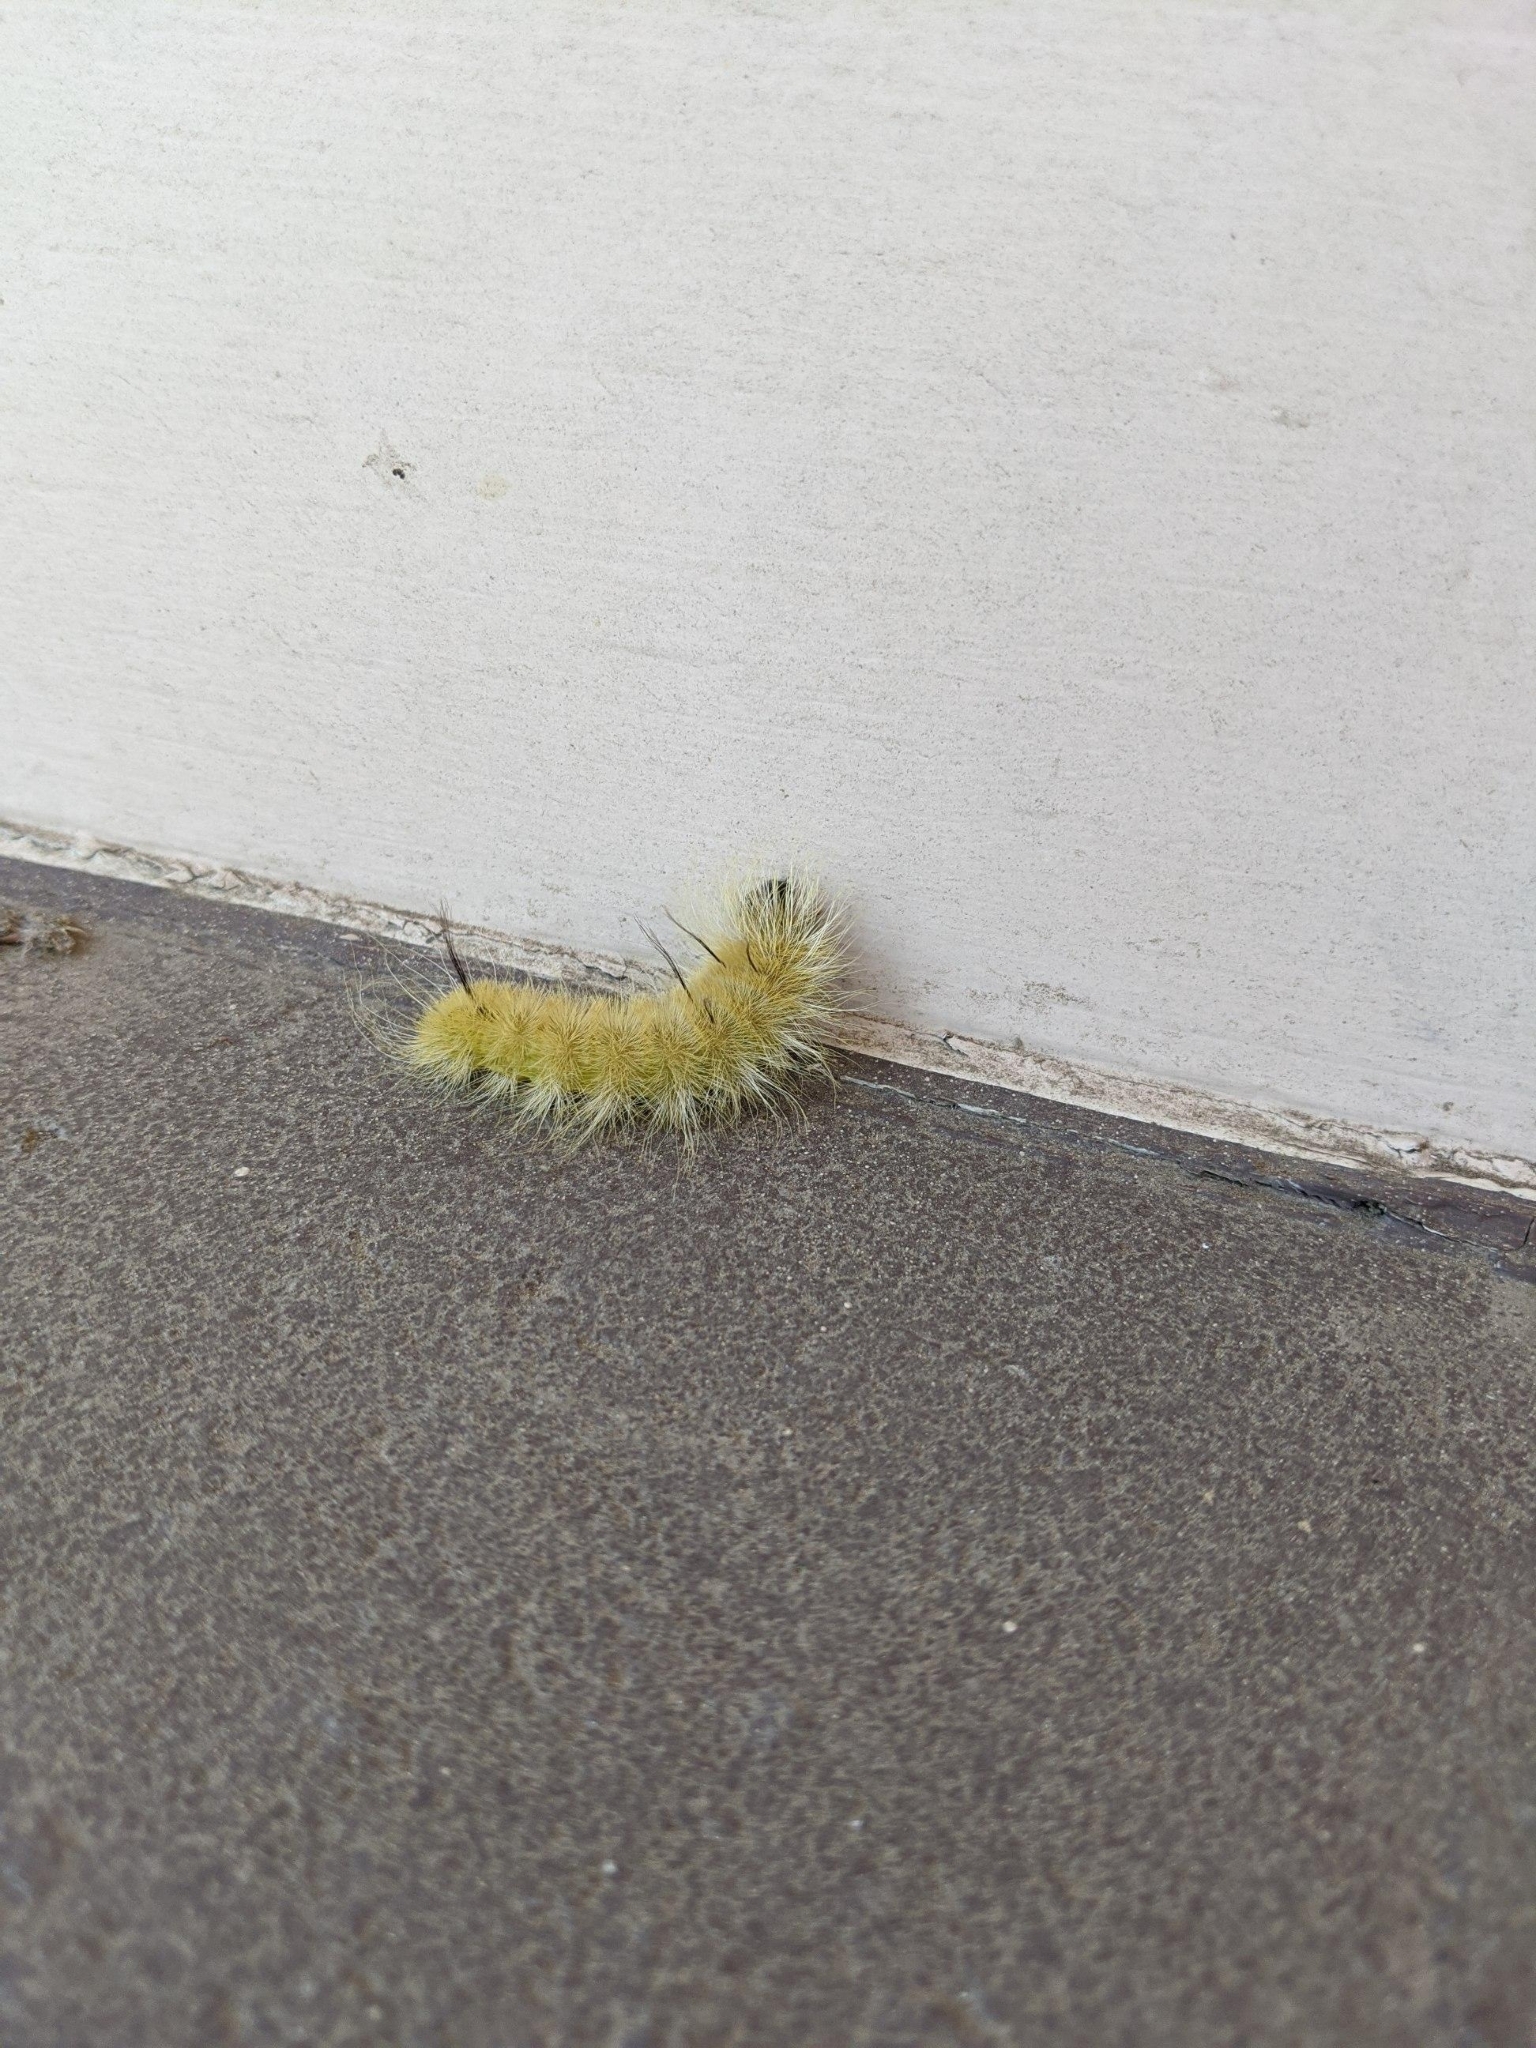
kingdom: Animalia
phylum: Arthropoda
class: Insecta
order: Lepidoptera
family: Noctuidae
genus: Acronicta
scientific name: Acronicta americana
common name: American dagger
